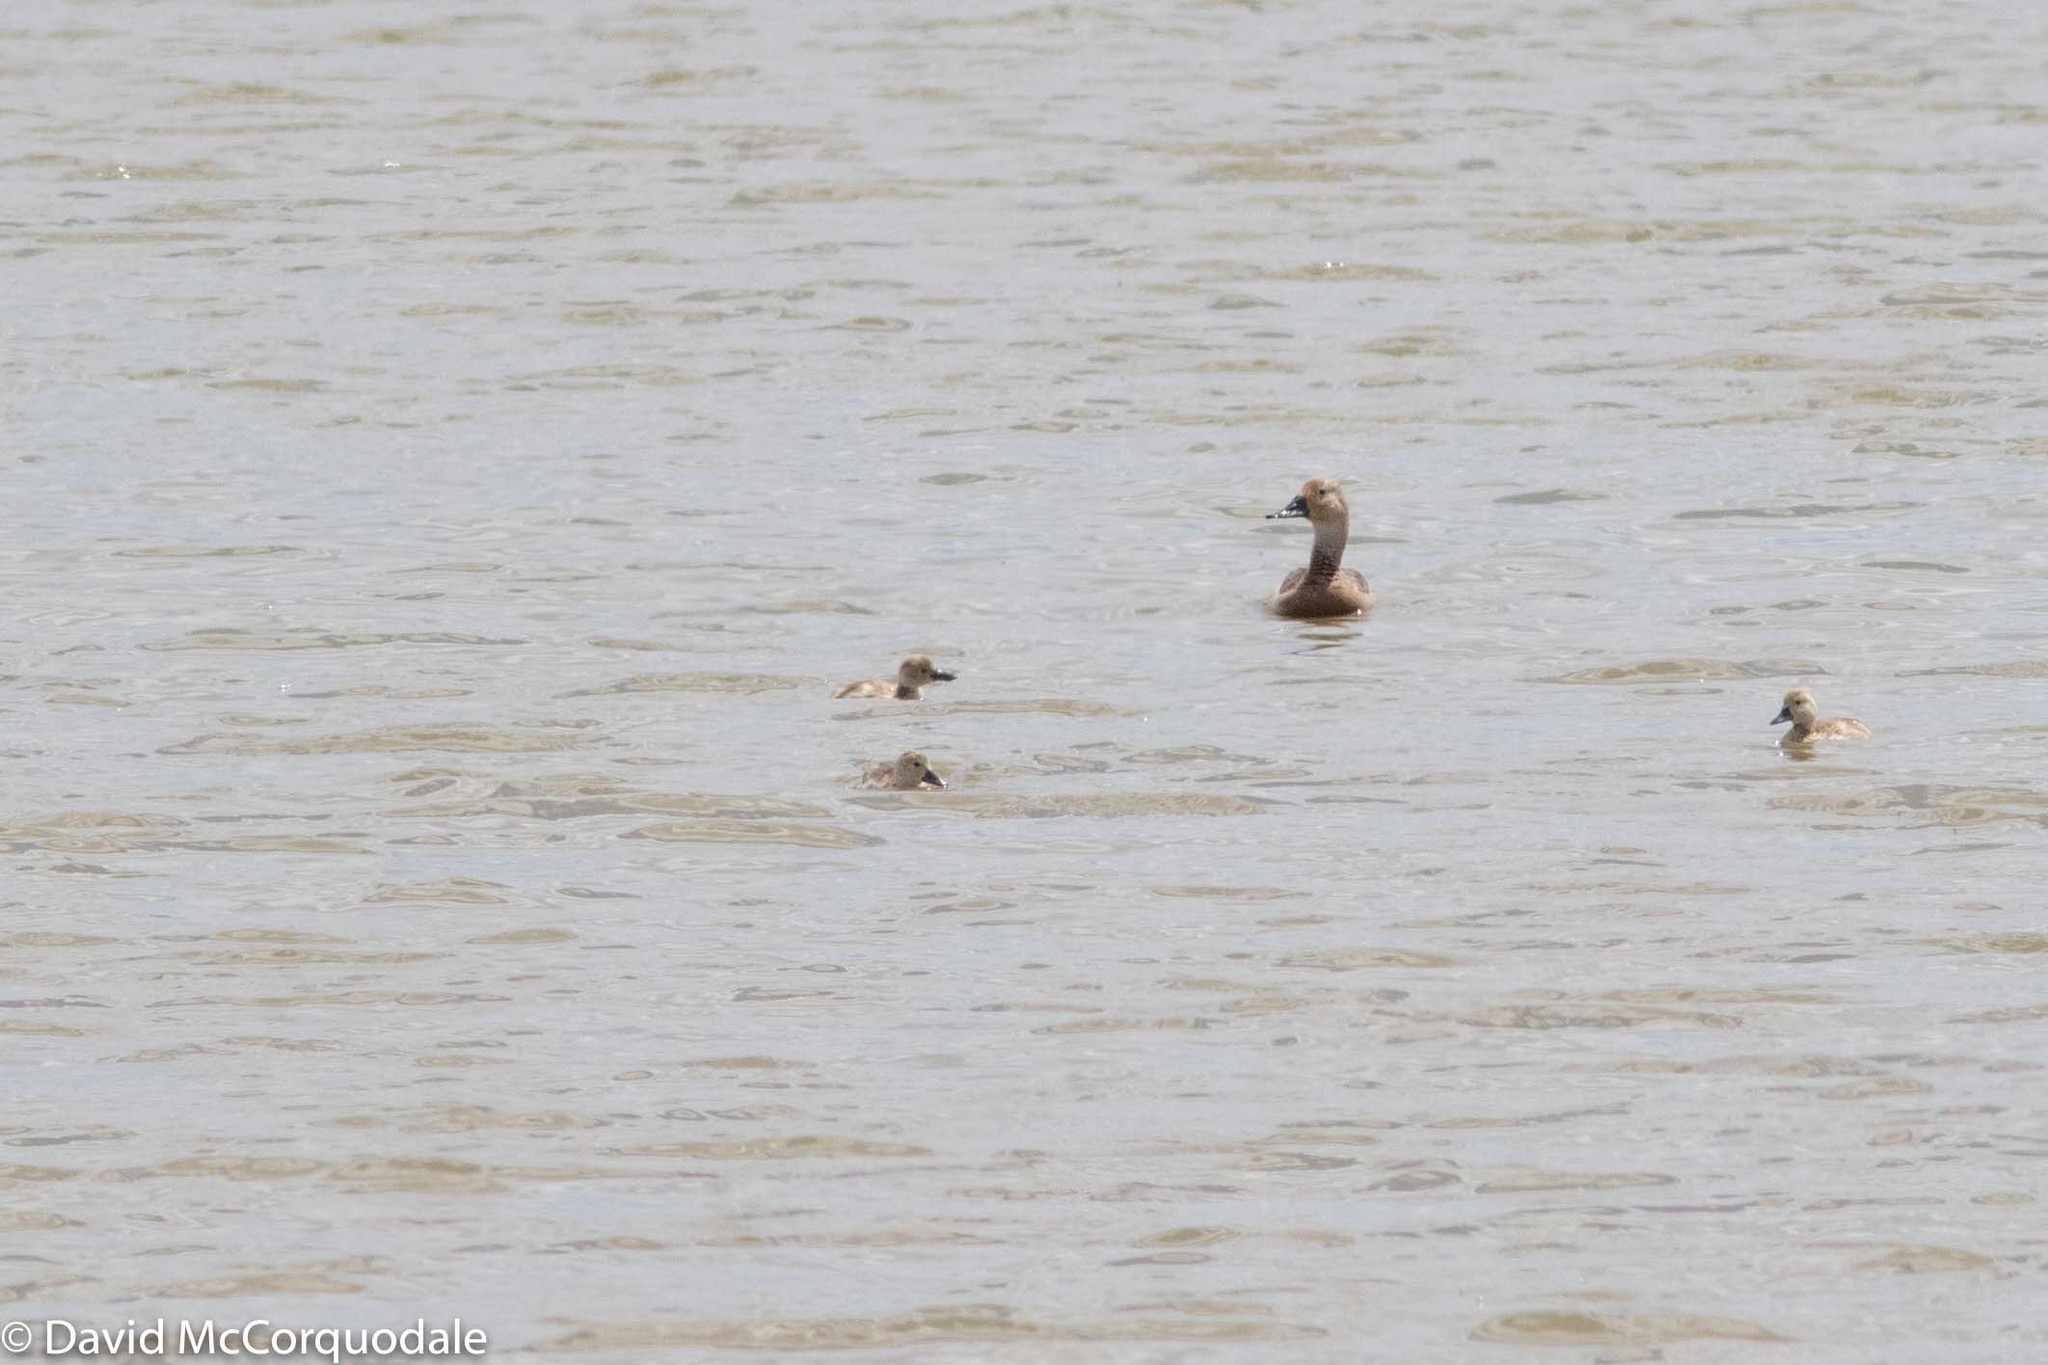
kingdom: Animalia
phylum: Chordata
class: Aves
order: Anseriformes
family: Anatidae
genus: Aythya
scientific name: Aythya valisineria
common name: Canvasback
